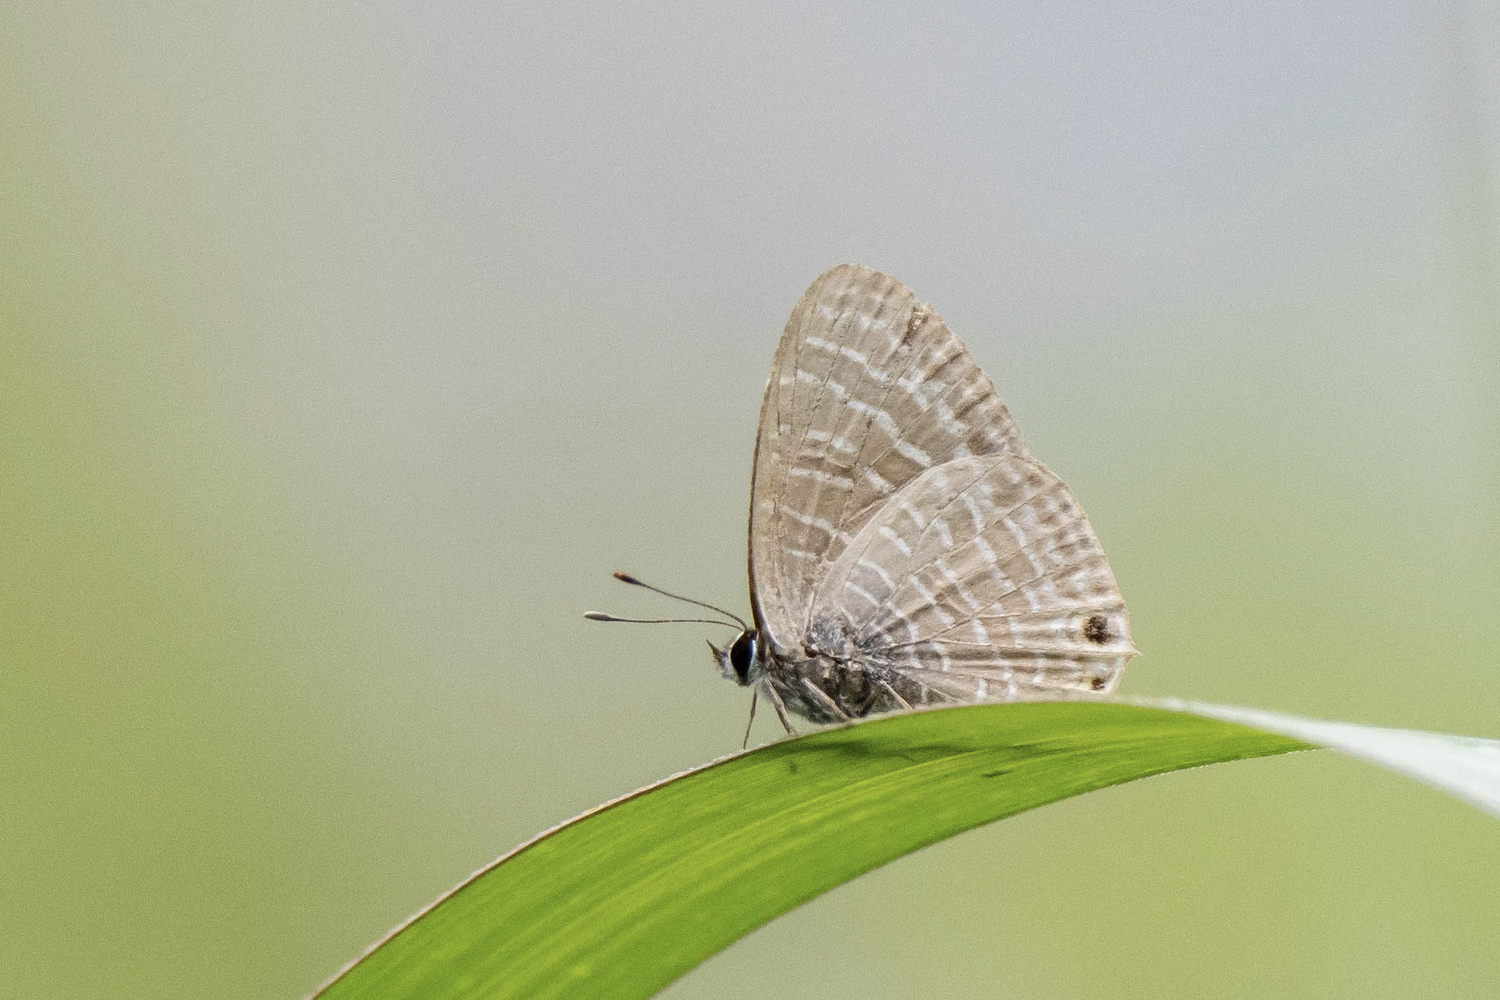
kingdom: Animalia
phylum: Arthropoda
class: Insecta
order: Lepidoptera
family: Lycaenidae
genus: Nacaduba
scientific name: Nacaduba kurava
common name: Transparent 6-line blue
